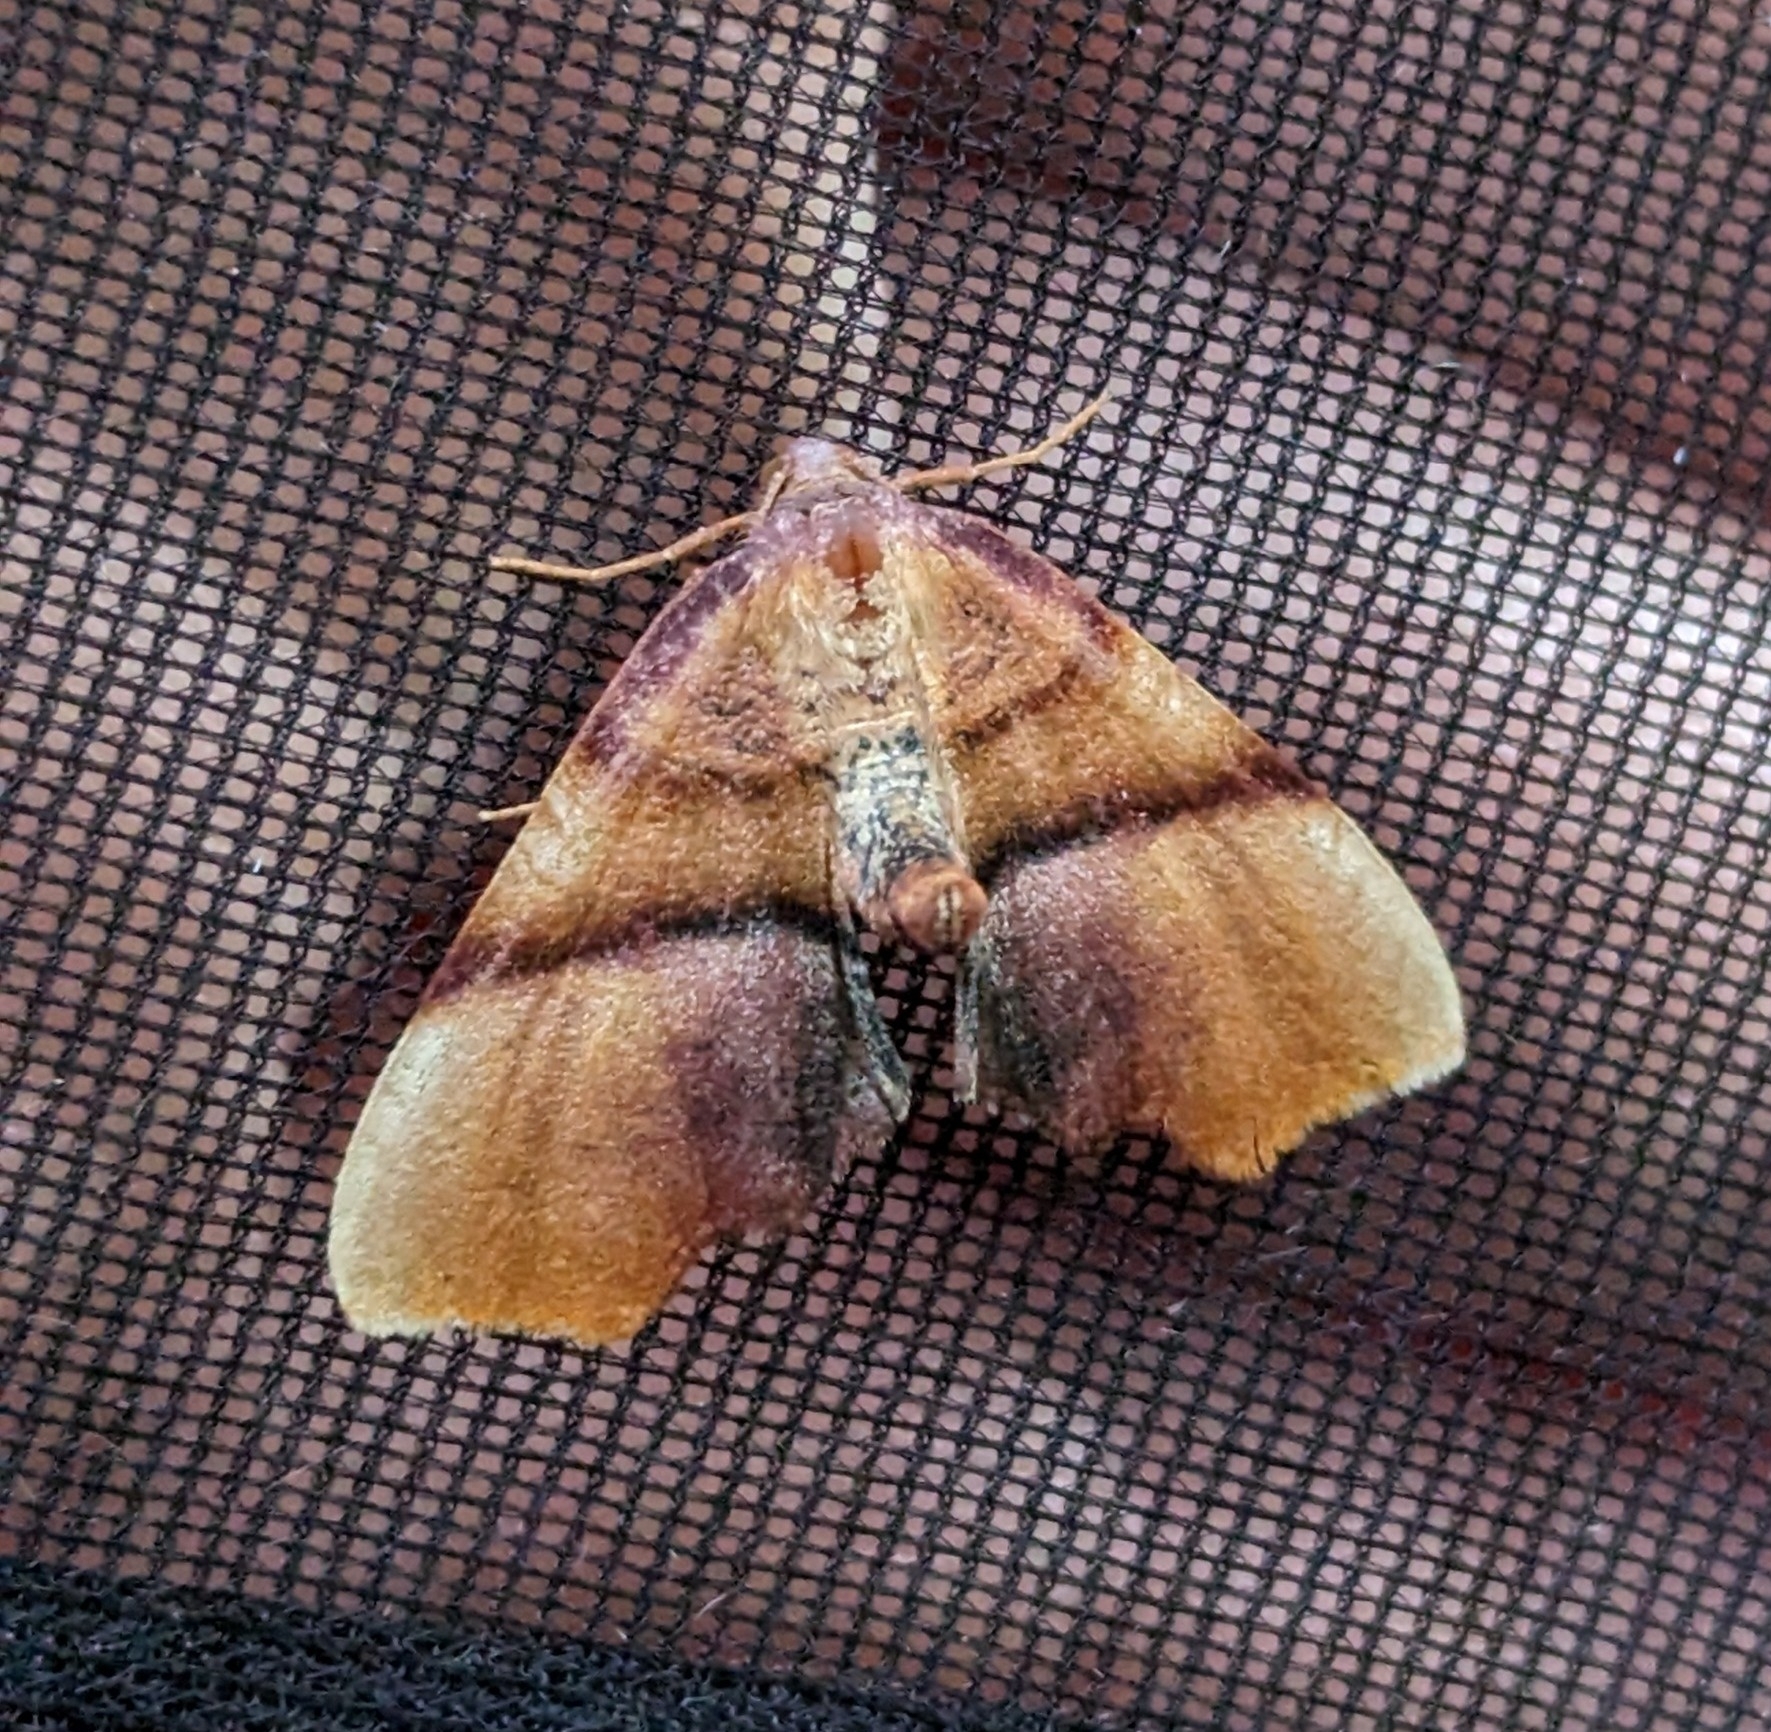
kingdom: Animalia
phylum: Arthropoda
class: Insecta
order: Lepidoptera
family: Geometridae
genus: Plagodis
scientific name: Plagodis phlogosaria
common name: Straight-lined plagodis
